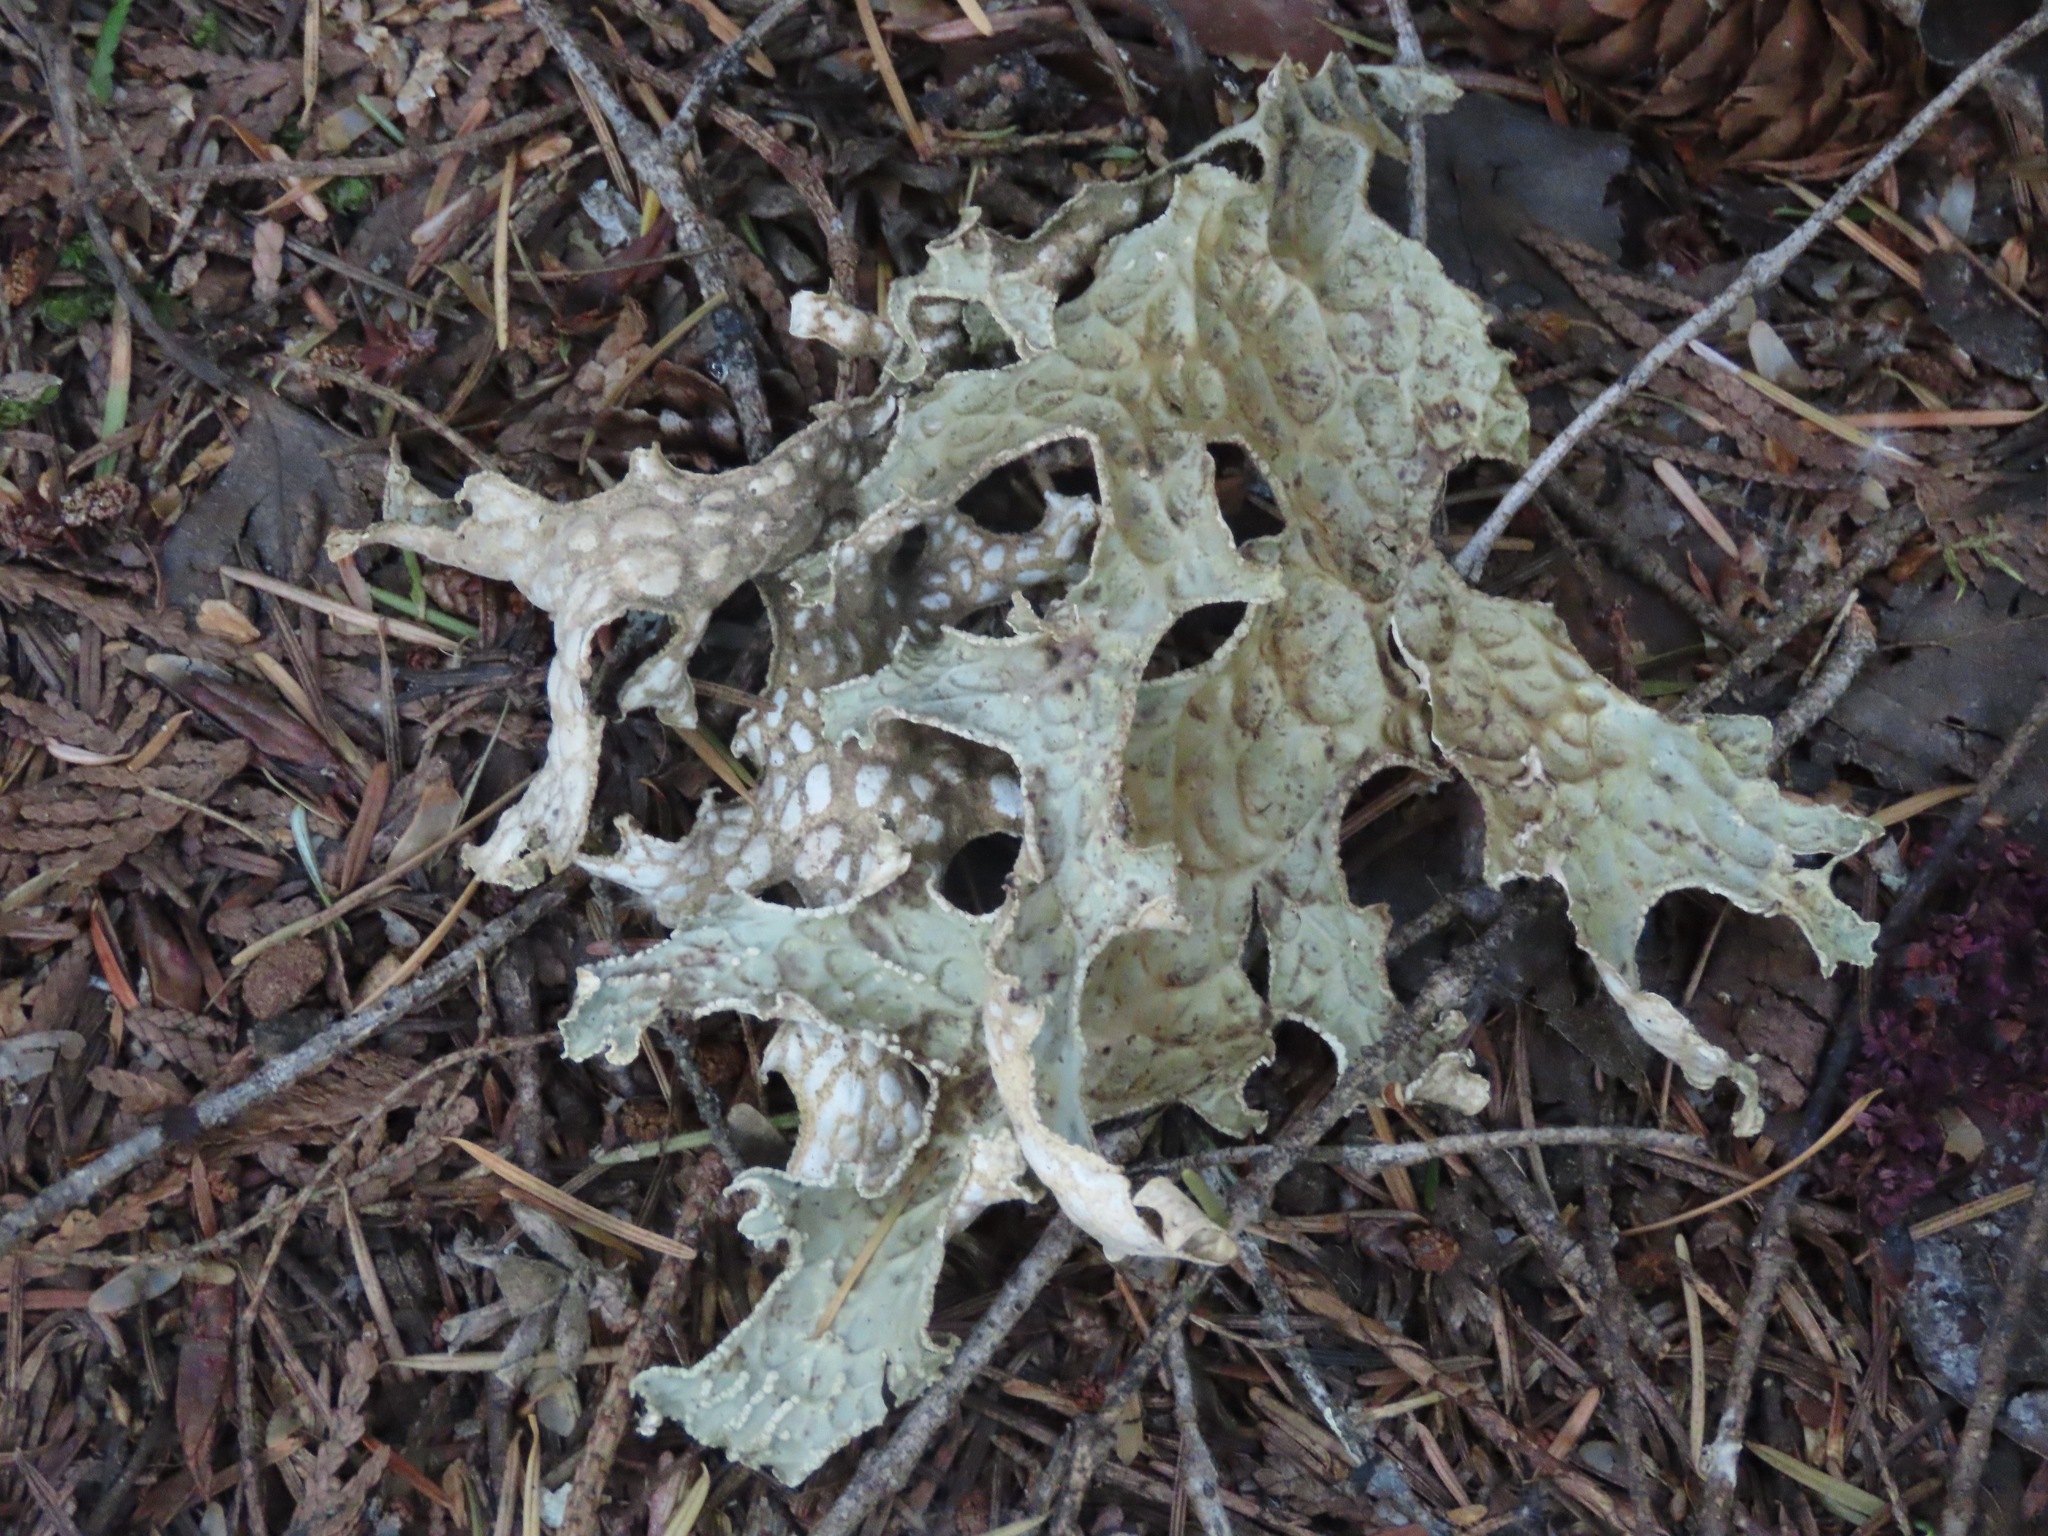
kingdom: Fungi
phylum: Ascomycota
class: Lecanoromycetes
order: Peltigerales
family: Lobariaceae
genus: Lobaria
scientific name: Lobaria pulmonaria
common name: Lungwort
